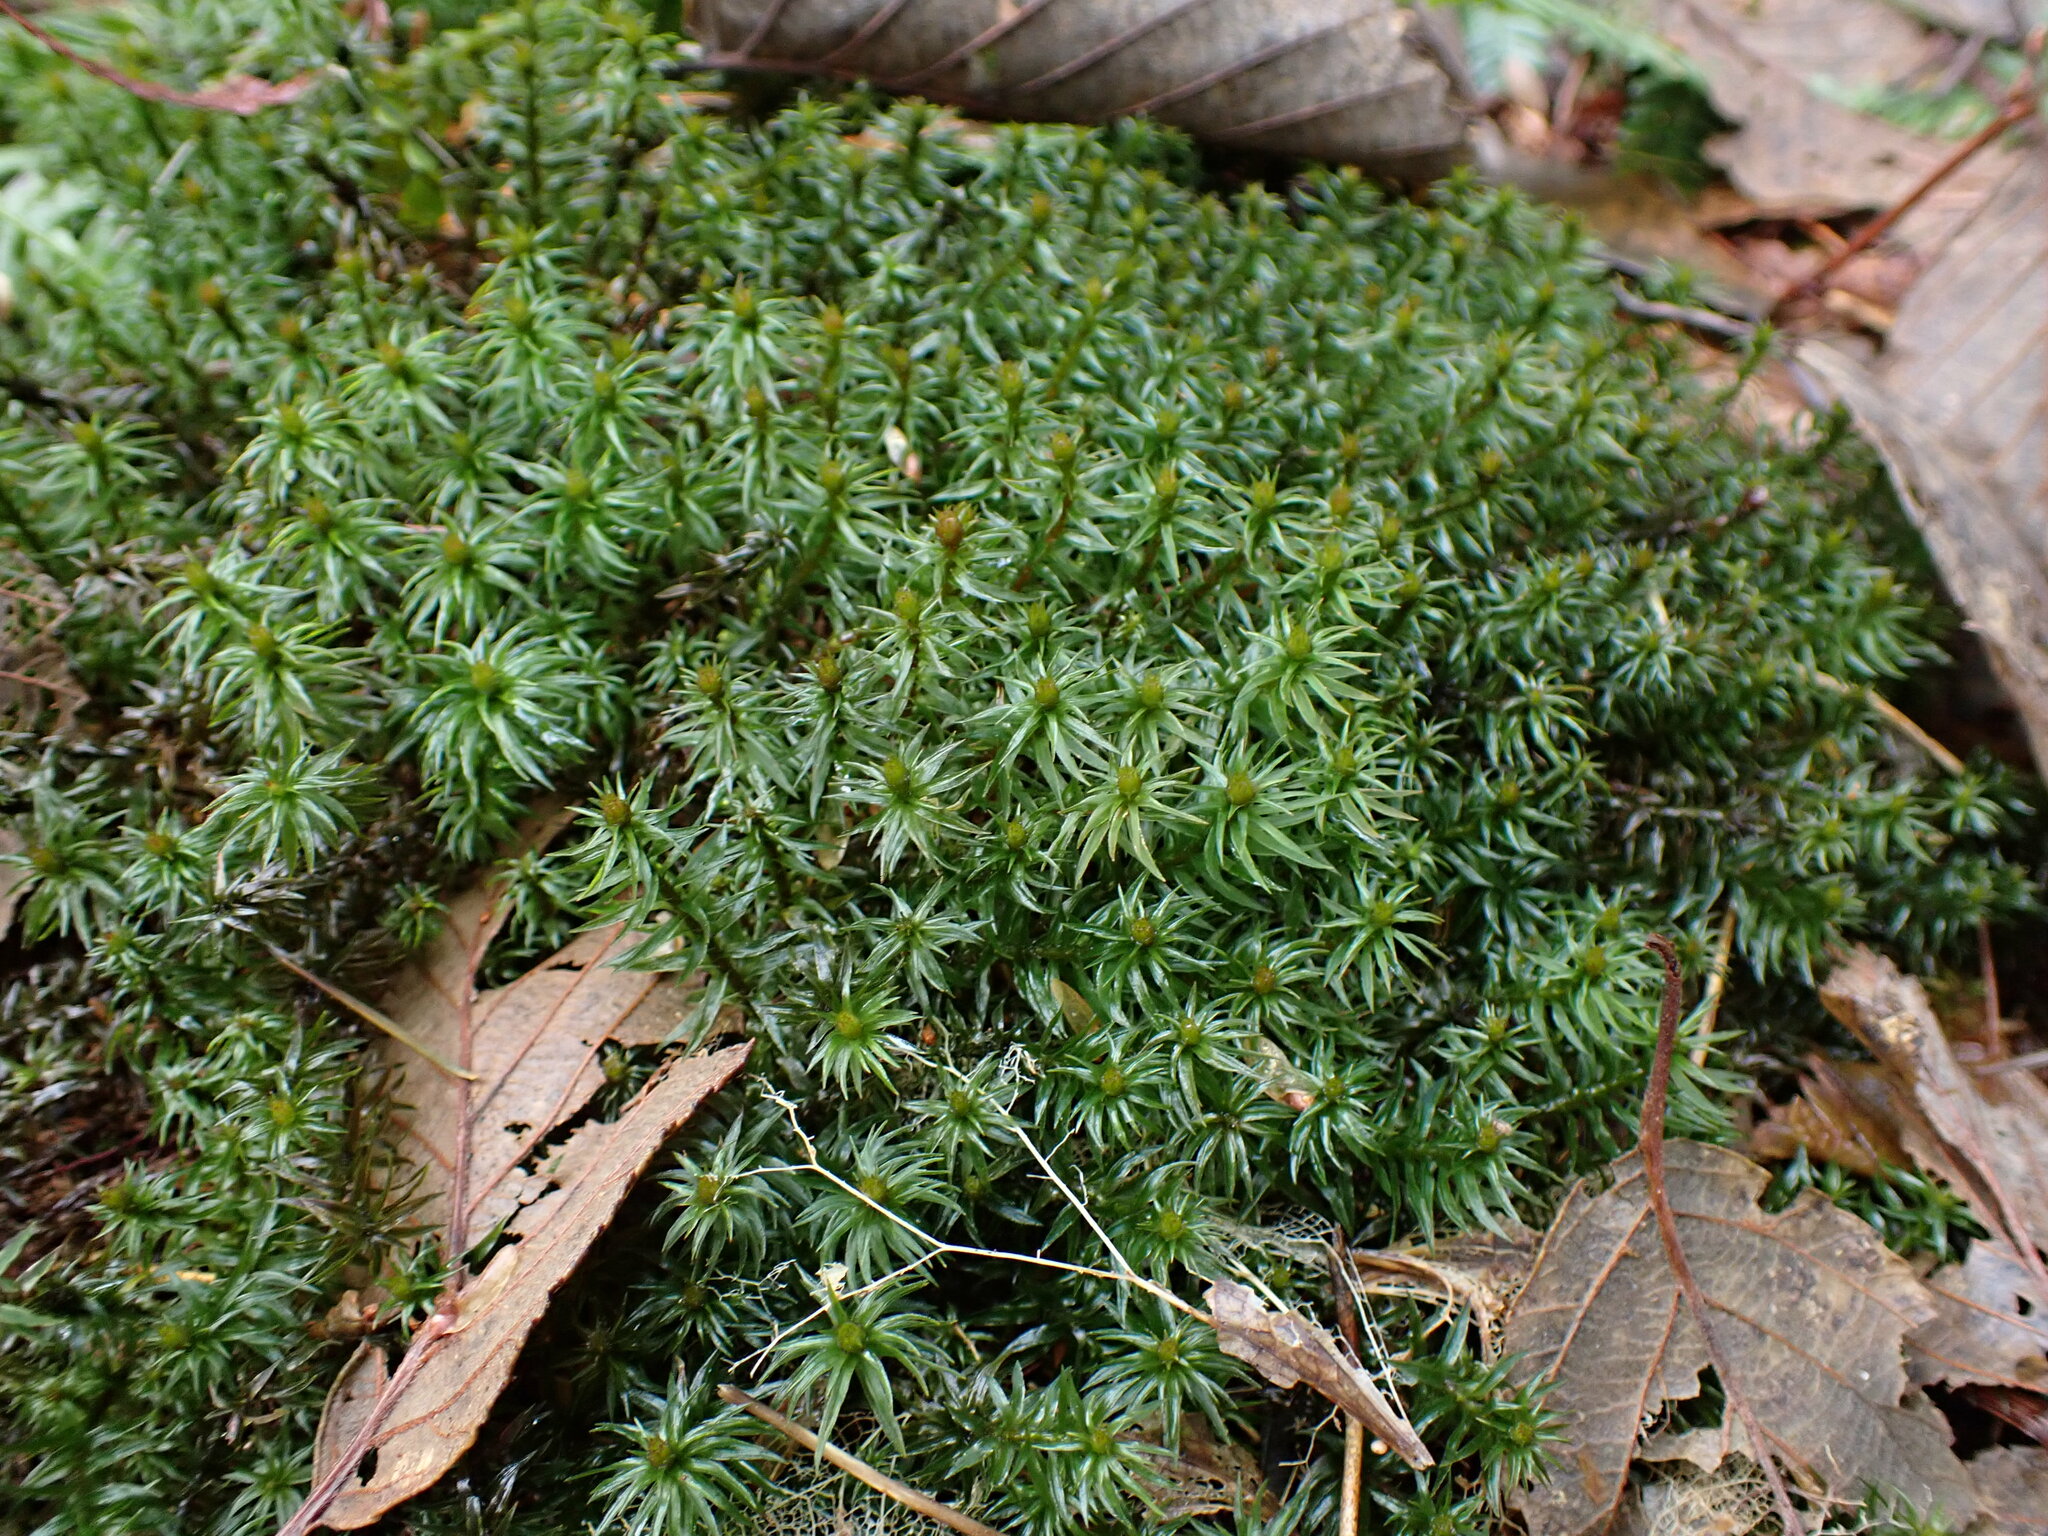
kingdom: Plantae
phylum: Bryophyta
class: Polytrichopsida
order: Polytrichales
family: Polytrichaceae
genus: Pogonatum
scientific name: Pogonatum contortum
